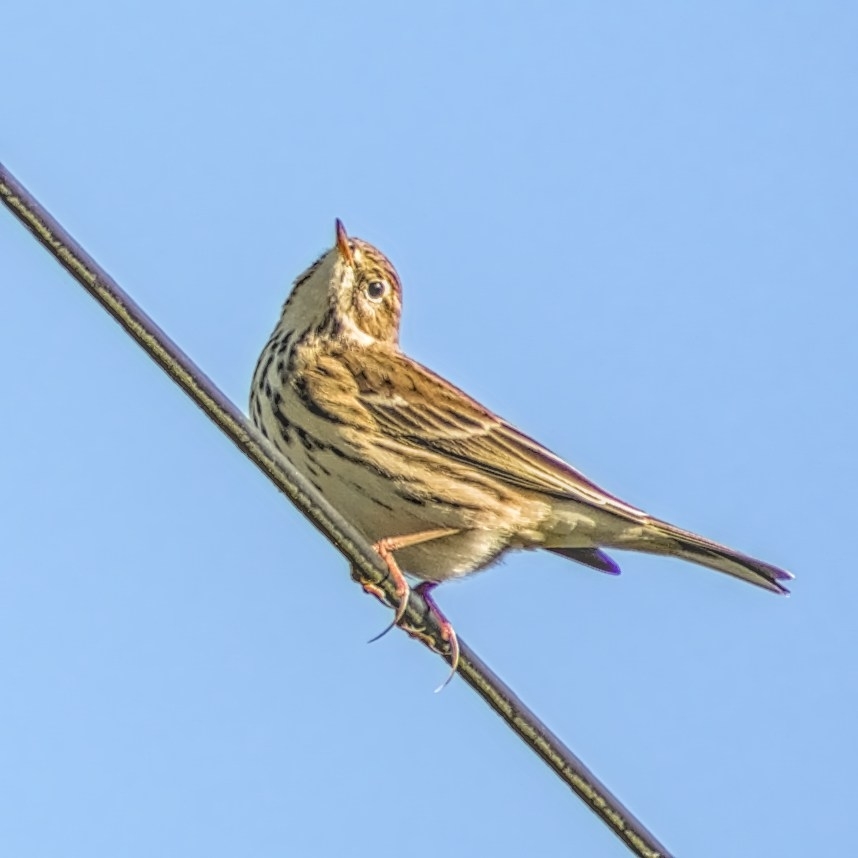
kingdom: Animalia
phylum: Chordata
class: Aves
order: Passeriformes
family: Motacillidae
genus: Anthus
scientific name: Anthus pratensis
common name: Meadow pipit
